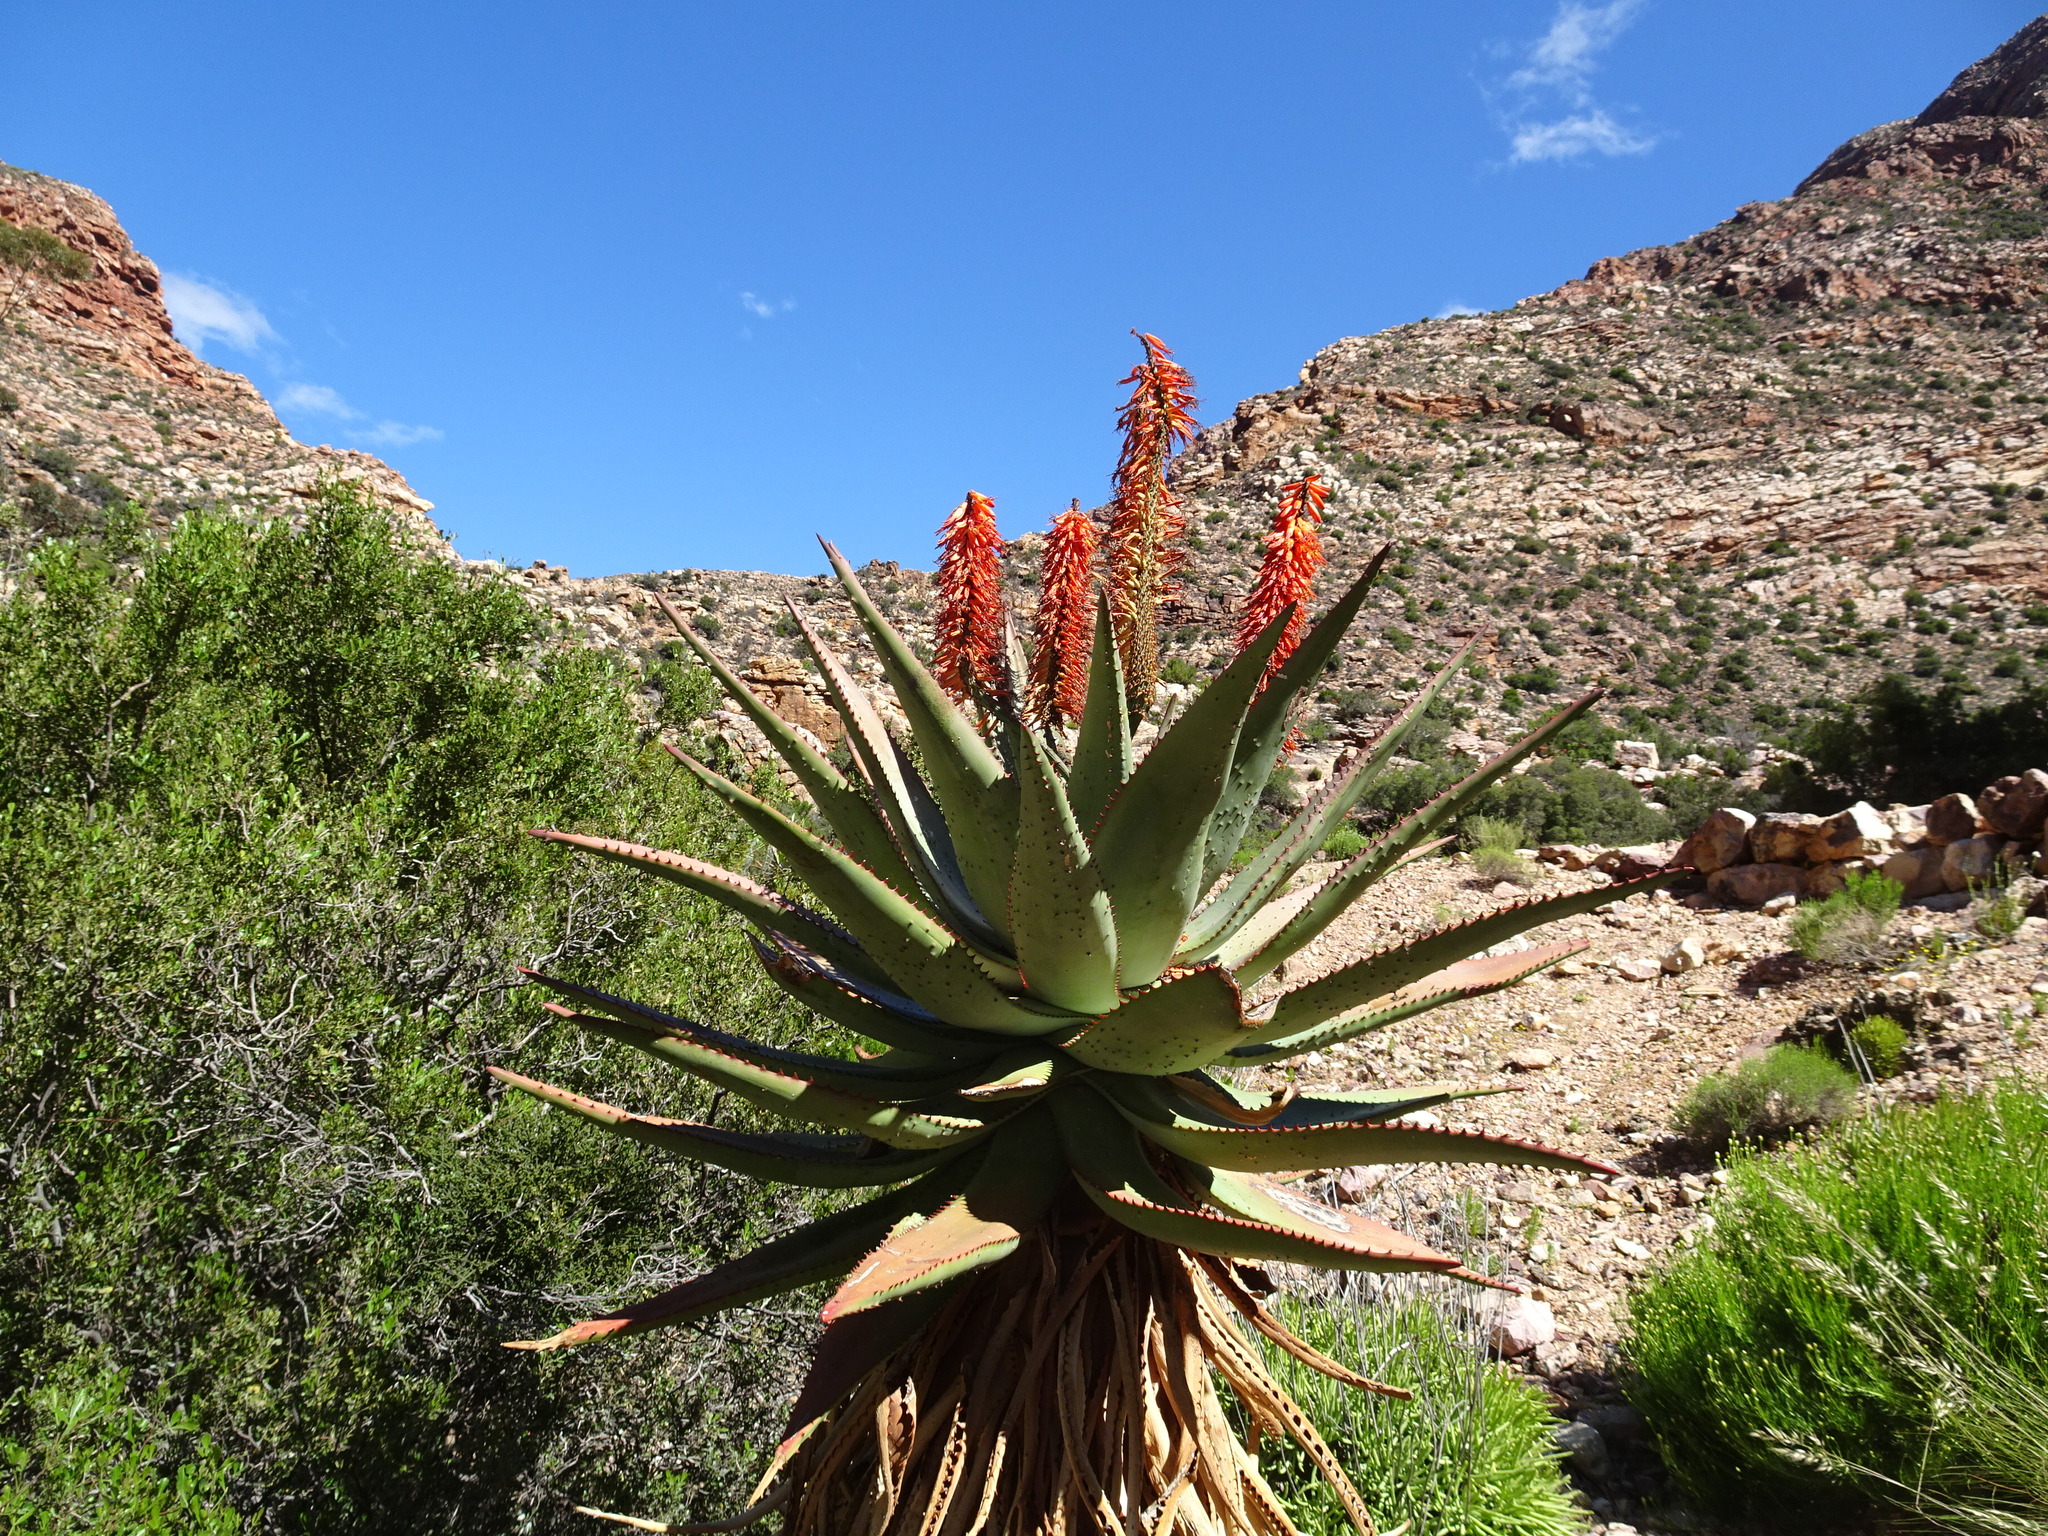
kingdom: Plantae
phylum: Tracheophyta
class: Liliopsida
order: Asparagales
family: Asphodelaceae
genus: Aloe
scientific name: Aloe ferox
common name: Bitter aloe
